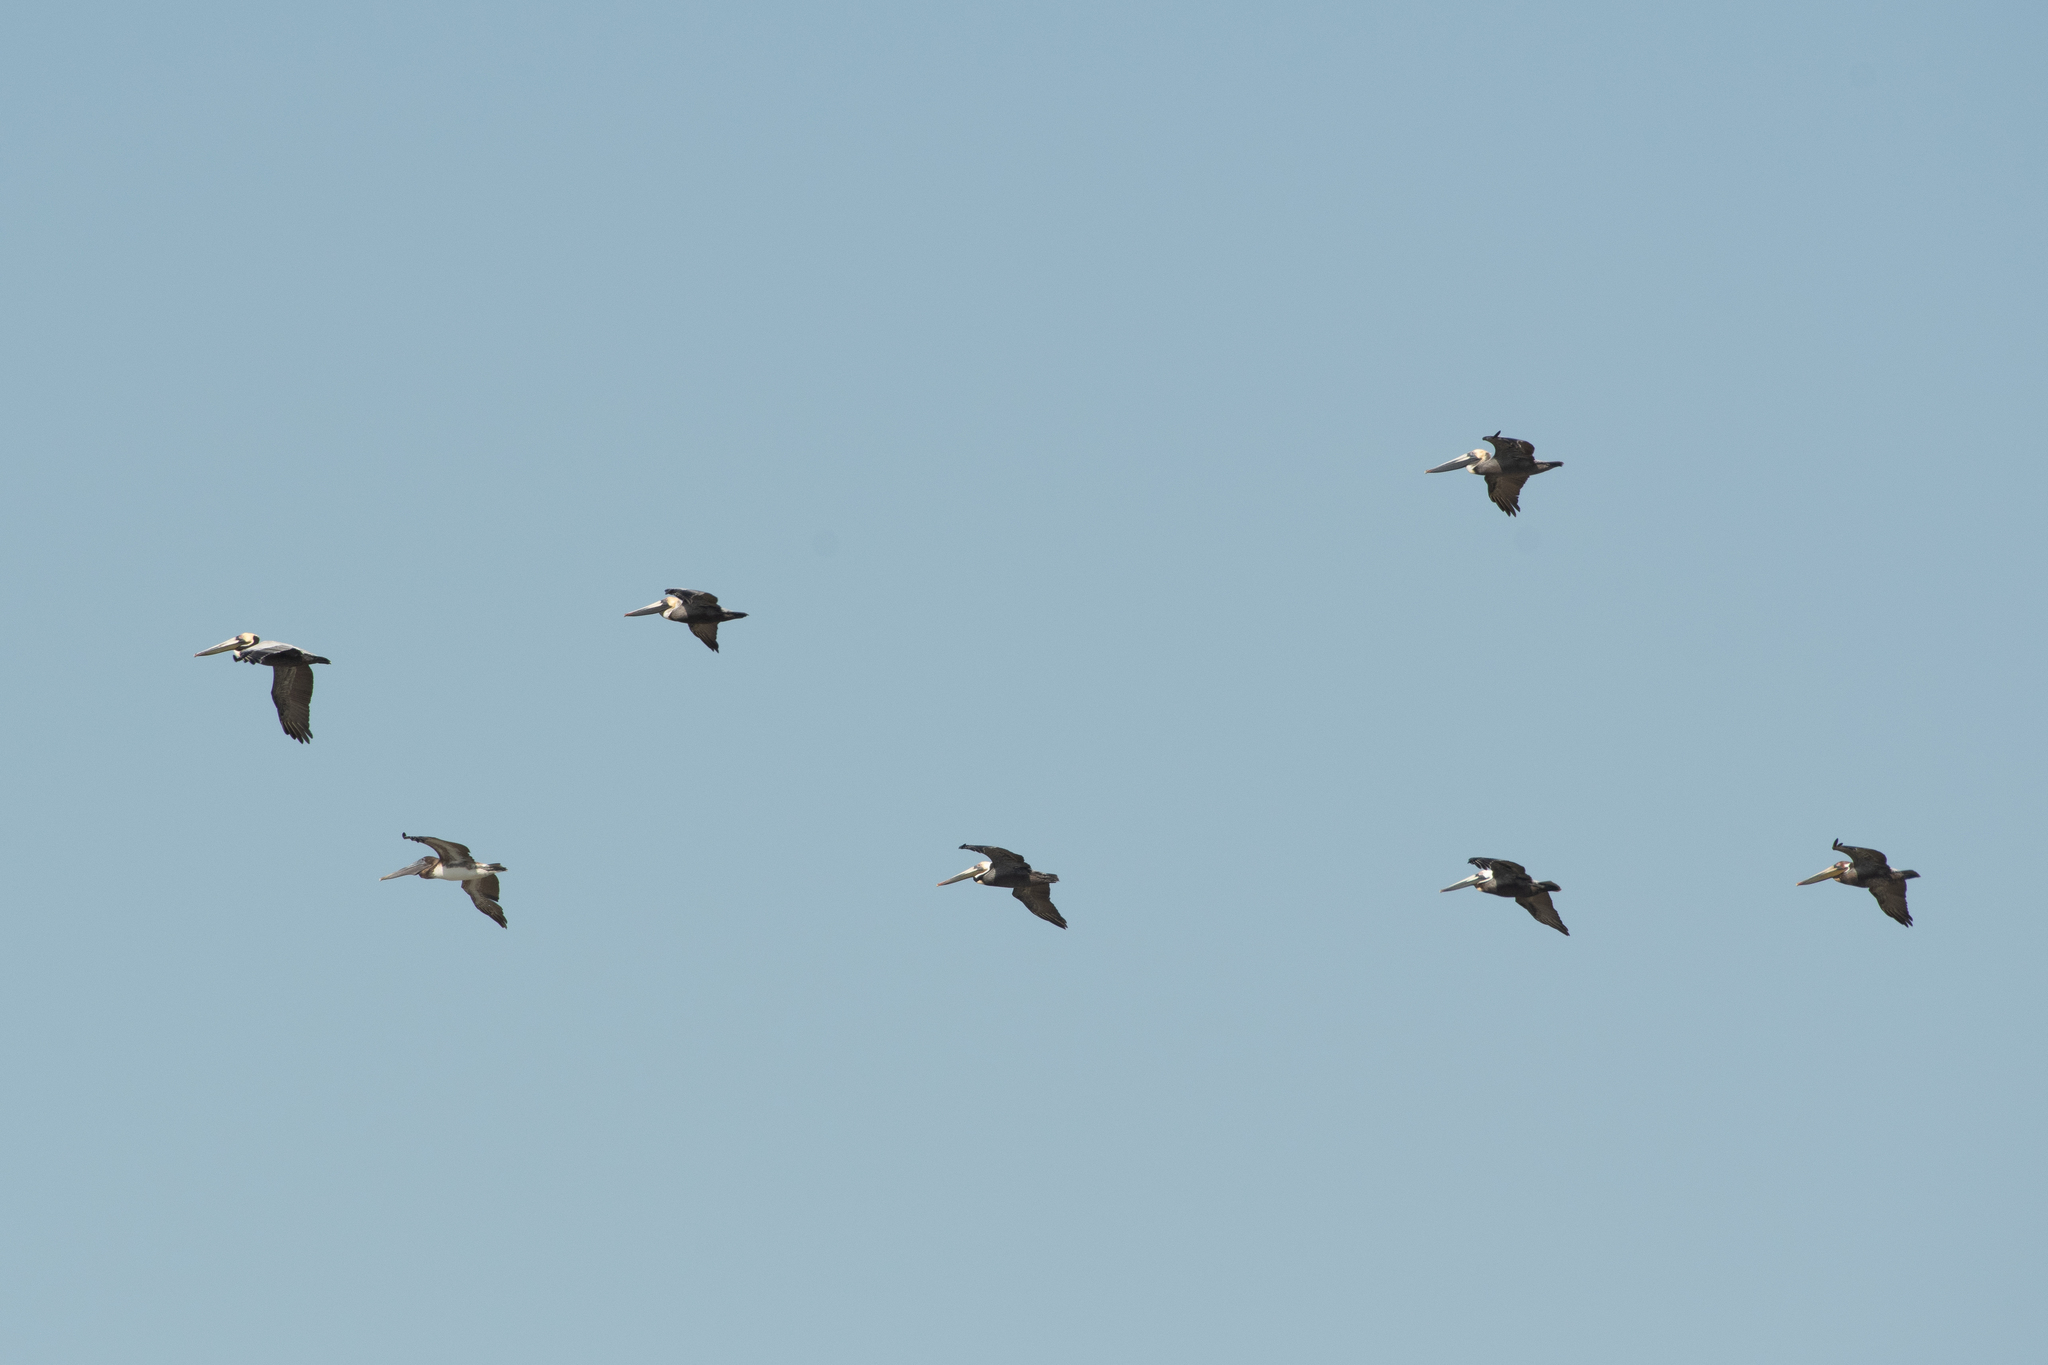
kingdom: Animalia
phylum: Chordata
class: Aves
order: Pelecaniformes
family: Pelecanidae
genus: Pelecanus
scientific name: Pelecanus occidentalis
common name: Brown pelican
